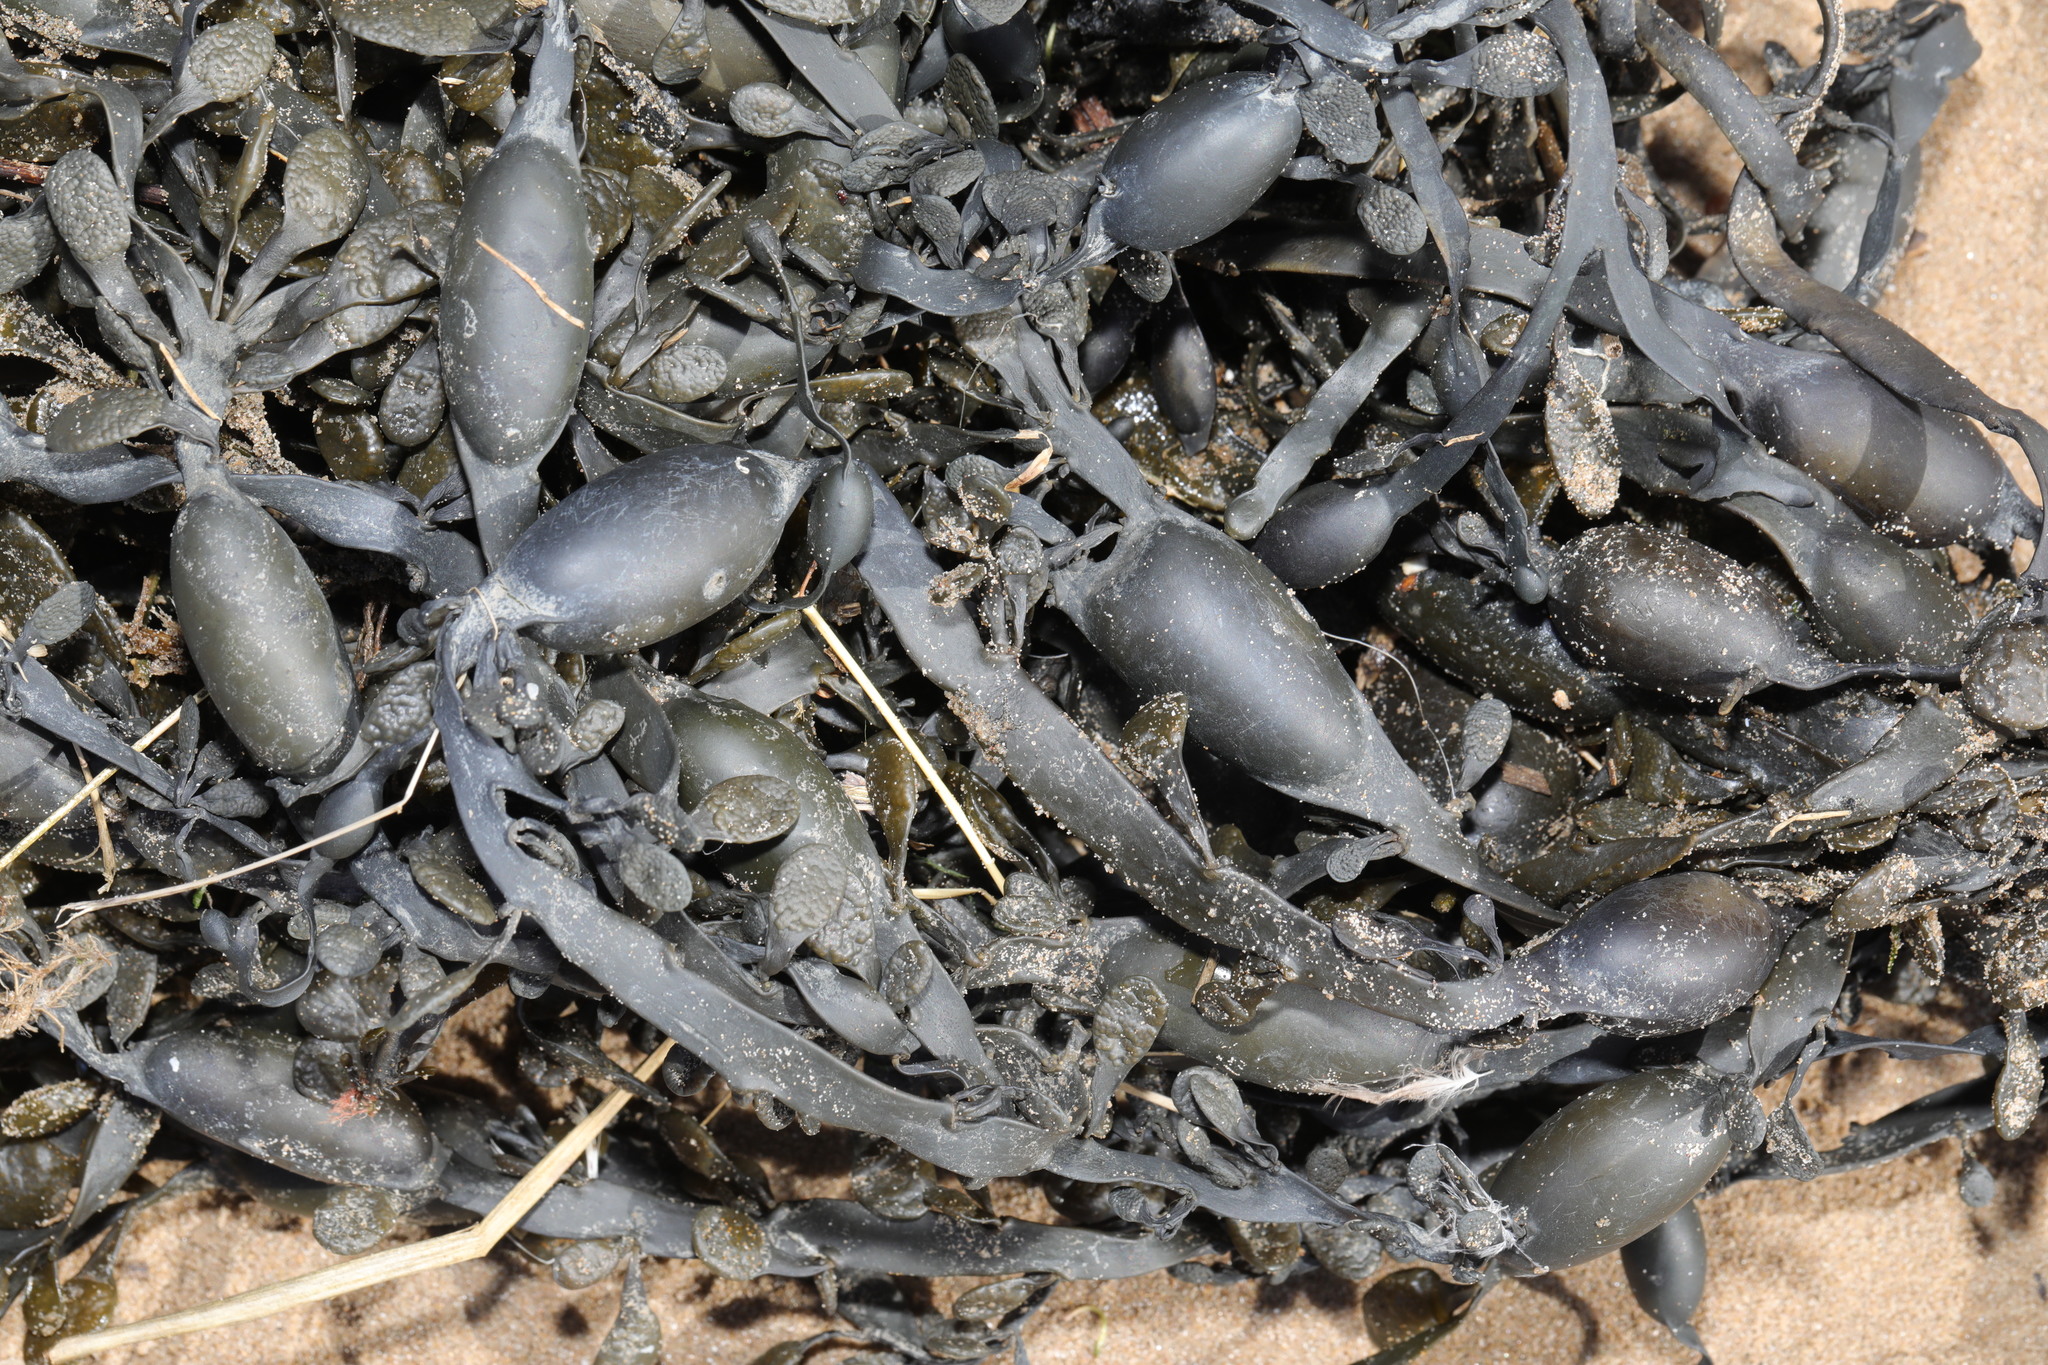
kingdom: Chromista
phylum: Ochrophyta
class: Phaeophyceae
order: Fucales
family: Fucaceae
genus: Ascophyllum
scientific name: Ascophyllum nodosum
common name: Knotted wrack
